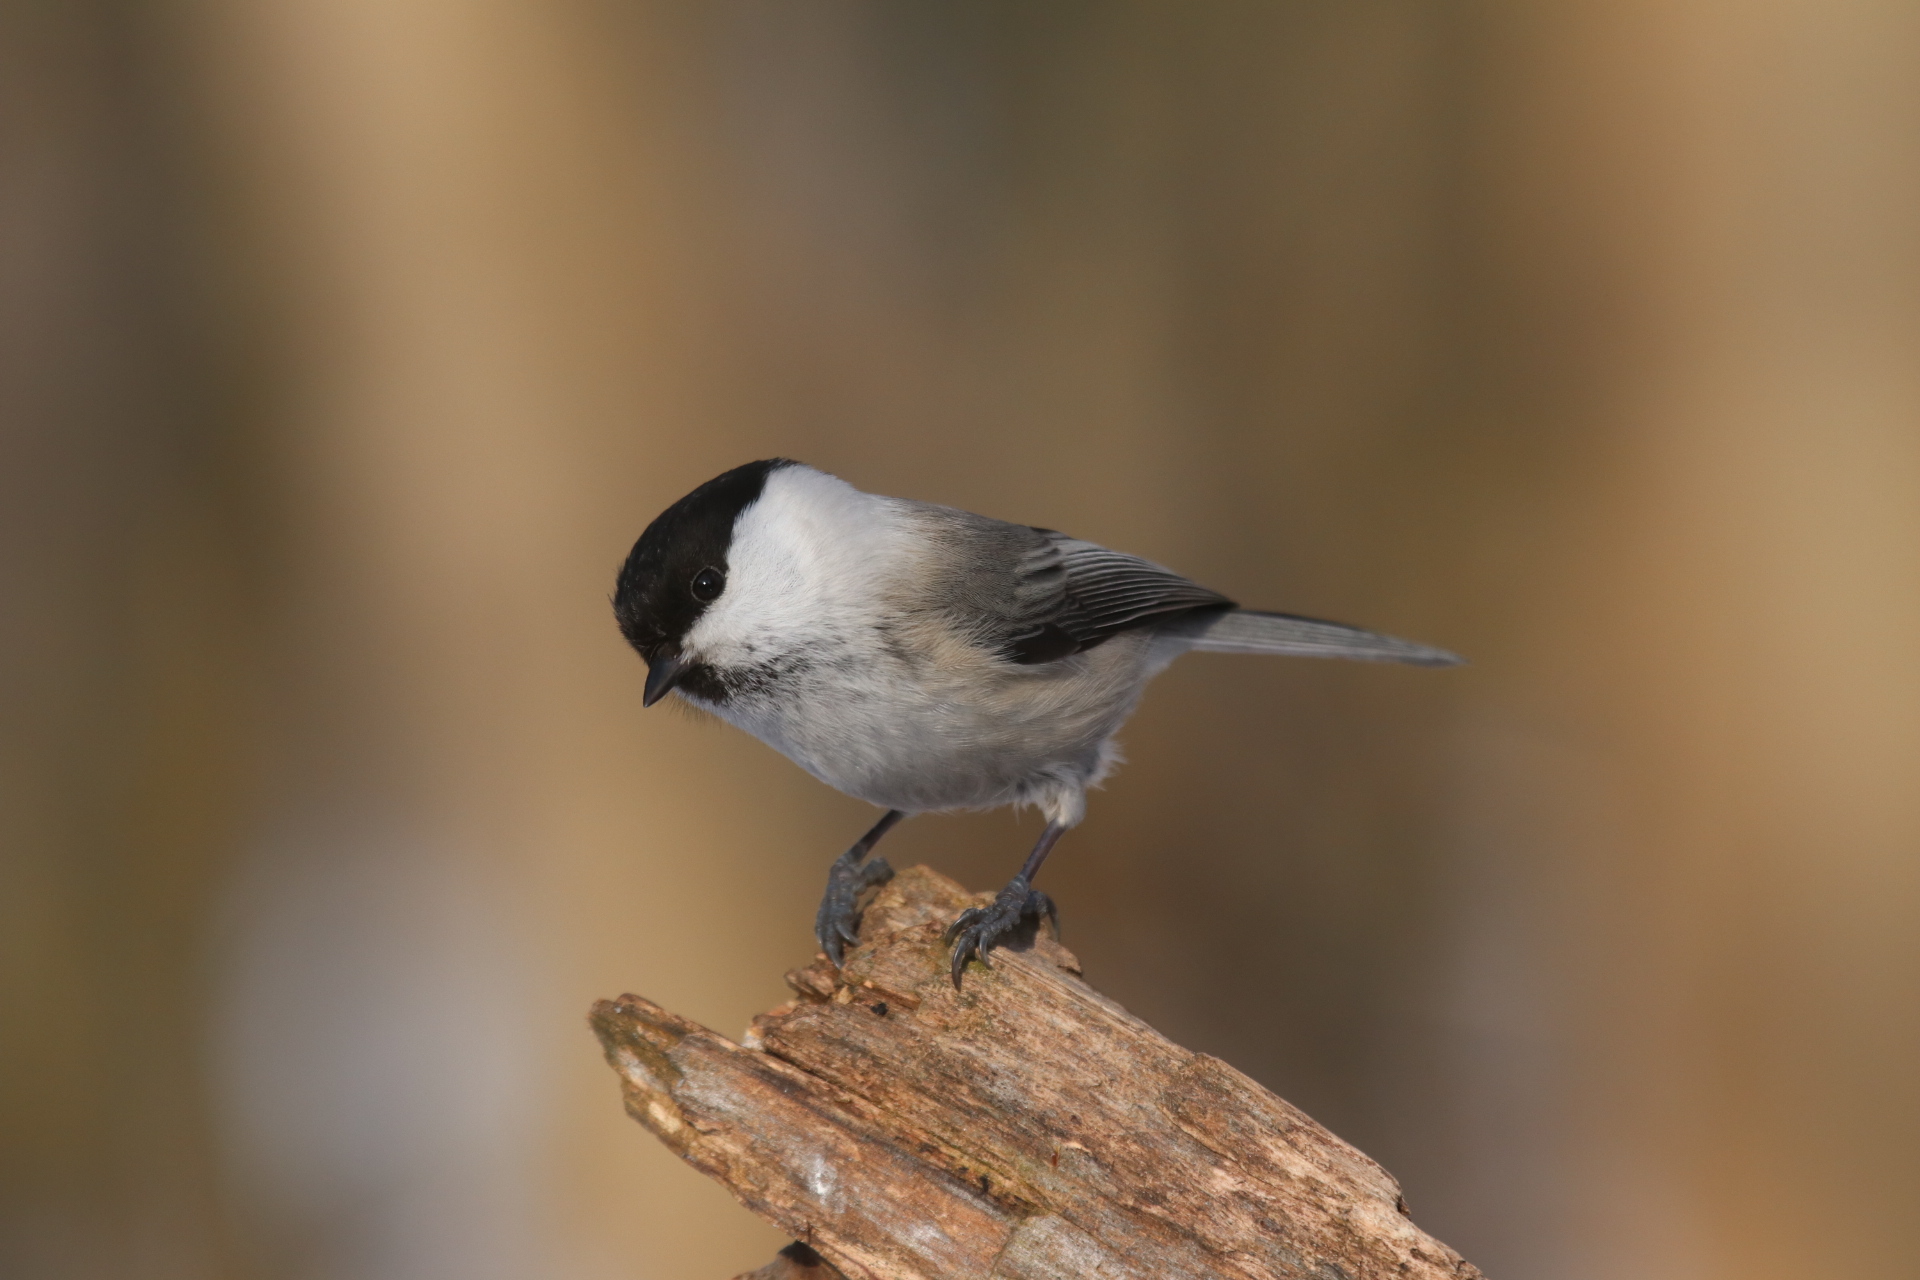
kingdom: Animalia
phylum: Chordata
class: Aves
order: Passeriformes
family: Paridae
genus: Poecile
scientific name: Poecile montanus
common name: Willow tit
